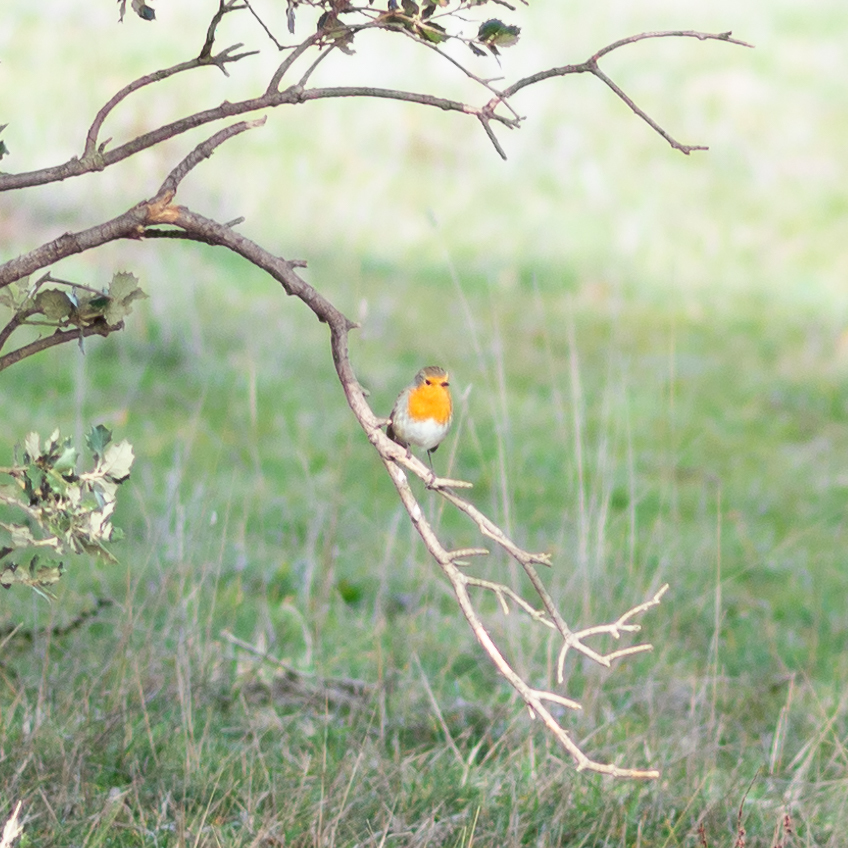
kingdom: Animalia
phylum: Chordata
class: Aves
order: Passeriformes
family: Muscicapidae
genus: Erithacus
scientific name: Erithacus rubecula
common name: European robin
